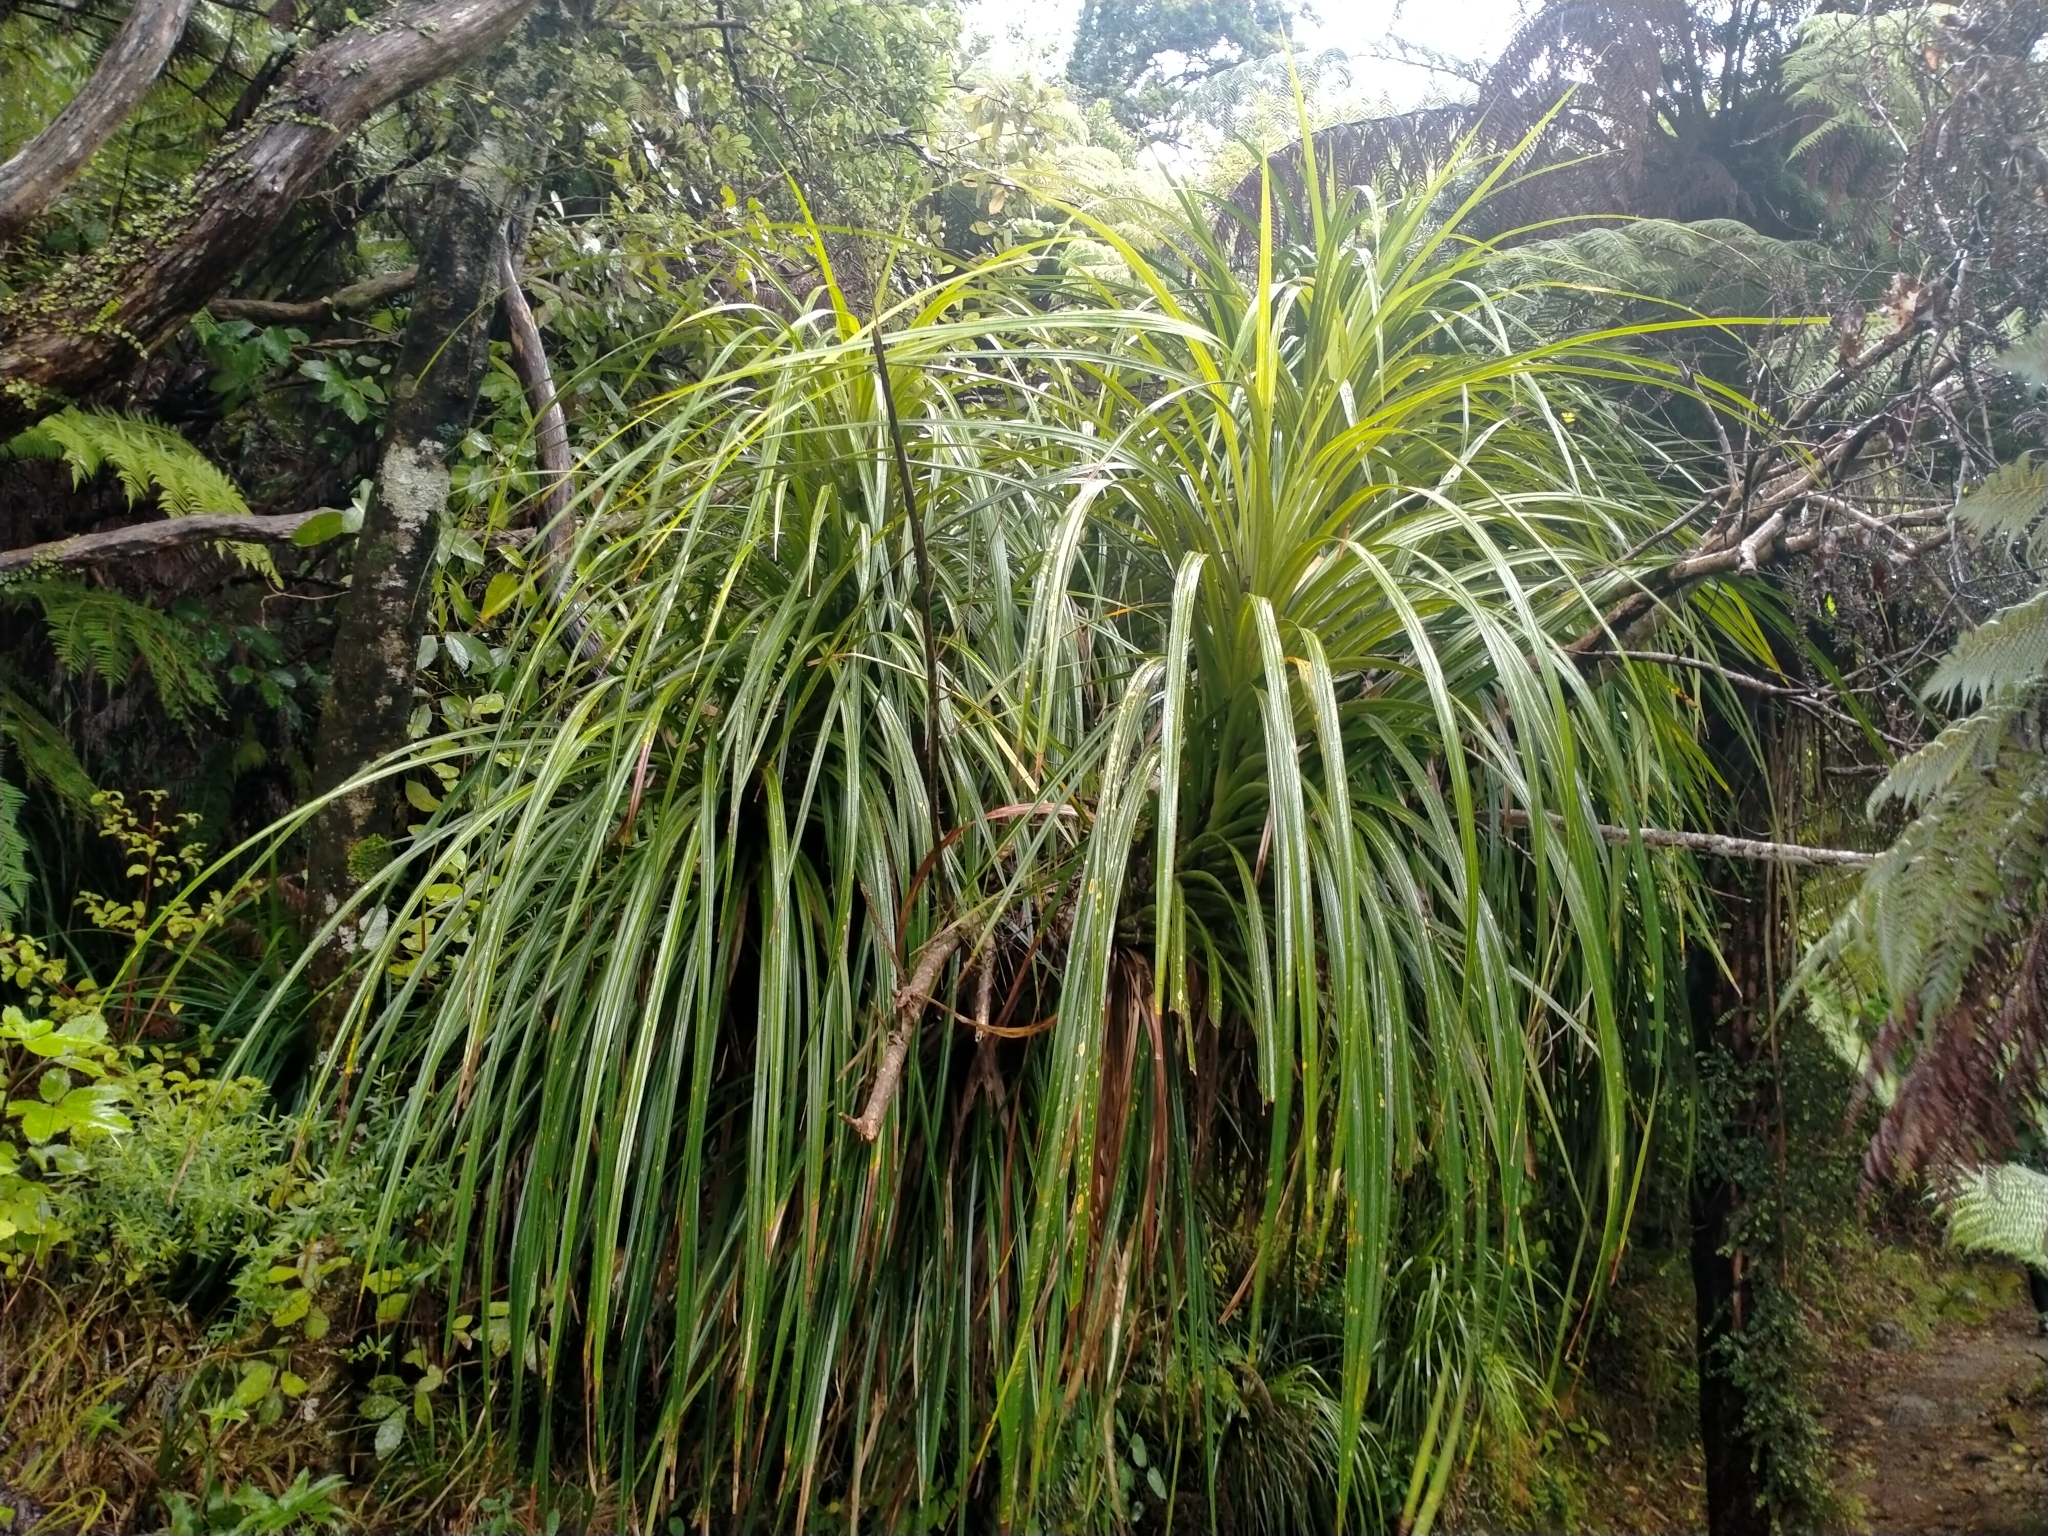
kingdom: Plantae
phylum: Tracheophyta
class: Liliopsida
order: Pandanales
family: Pandanaceae
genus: Freycinetia
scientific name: Freycinetia banksii
